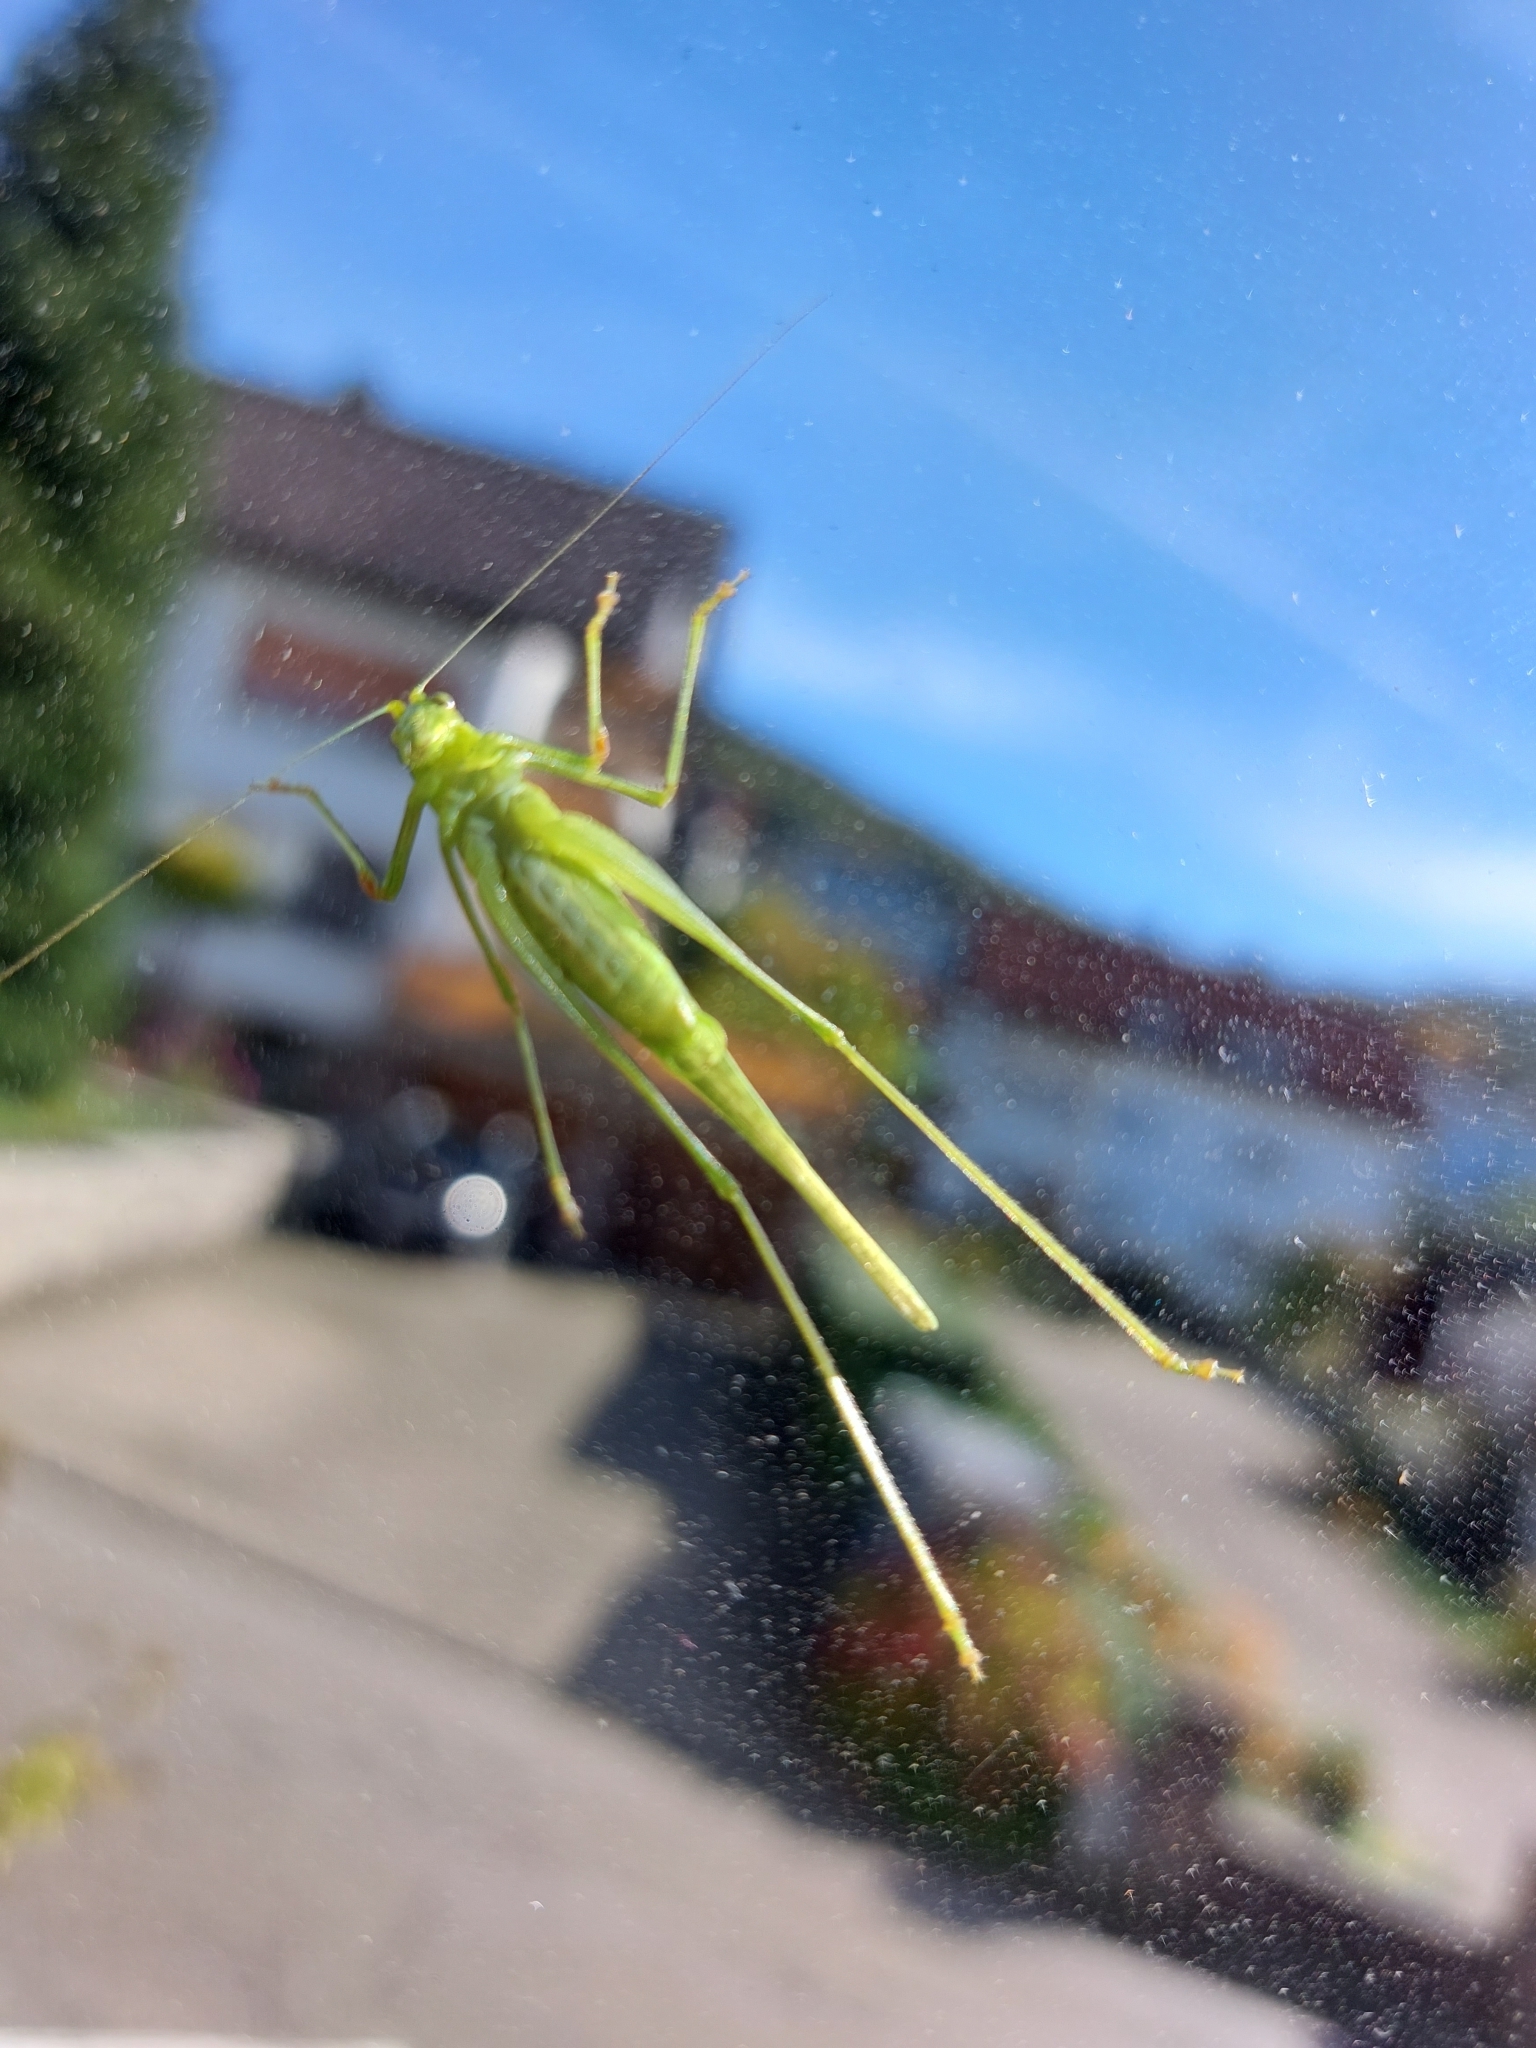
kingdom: Animalia
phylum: Arthropoda
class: Insecta
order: Orthoptera
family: Tettigoniidae
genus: Phaneroptera
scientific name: Phaneroptera nana
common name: Southern sickle bush-cricket
